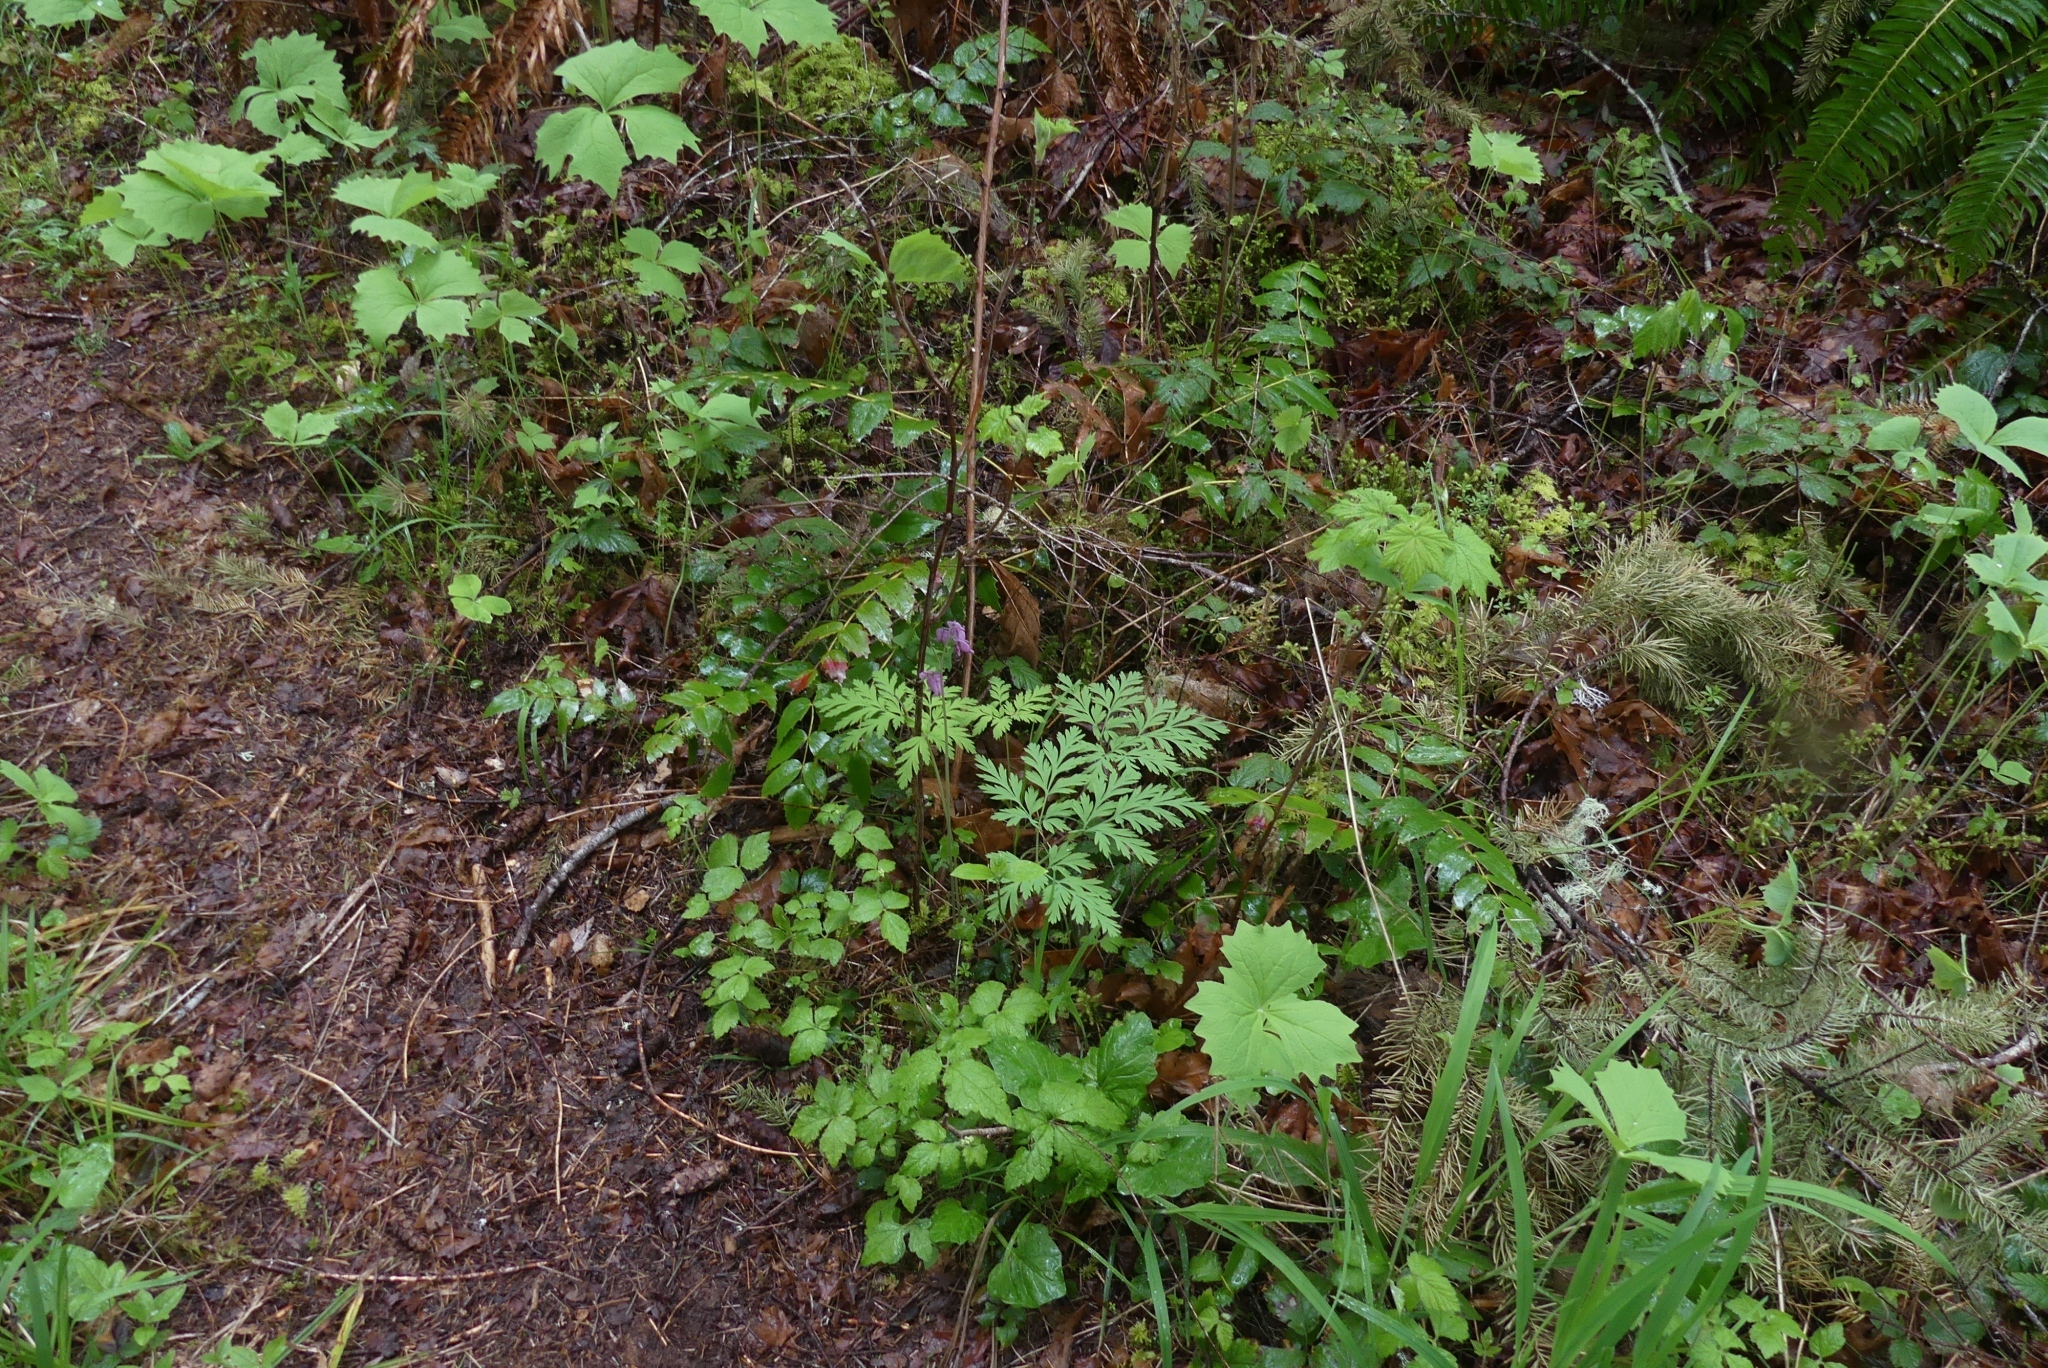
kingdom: Plantae
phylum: Tracheophyta
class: Magnoliopsida
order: Ranunculales
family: Papaveraceae
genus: Dicentra
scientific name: Dicentra formosa
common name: Bleeding-heart
